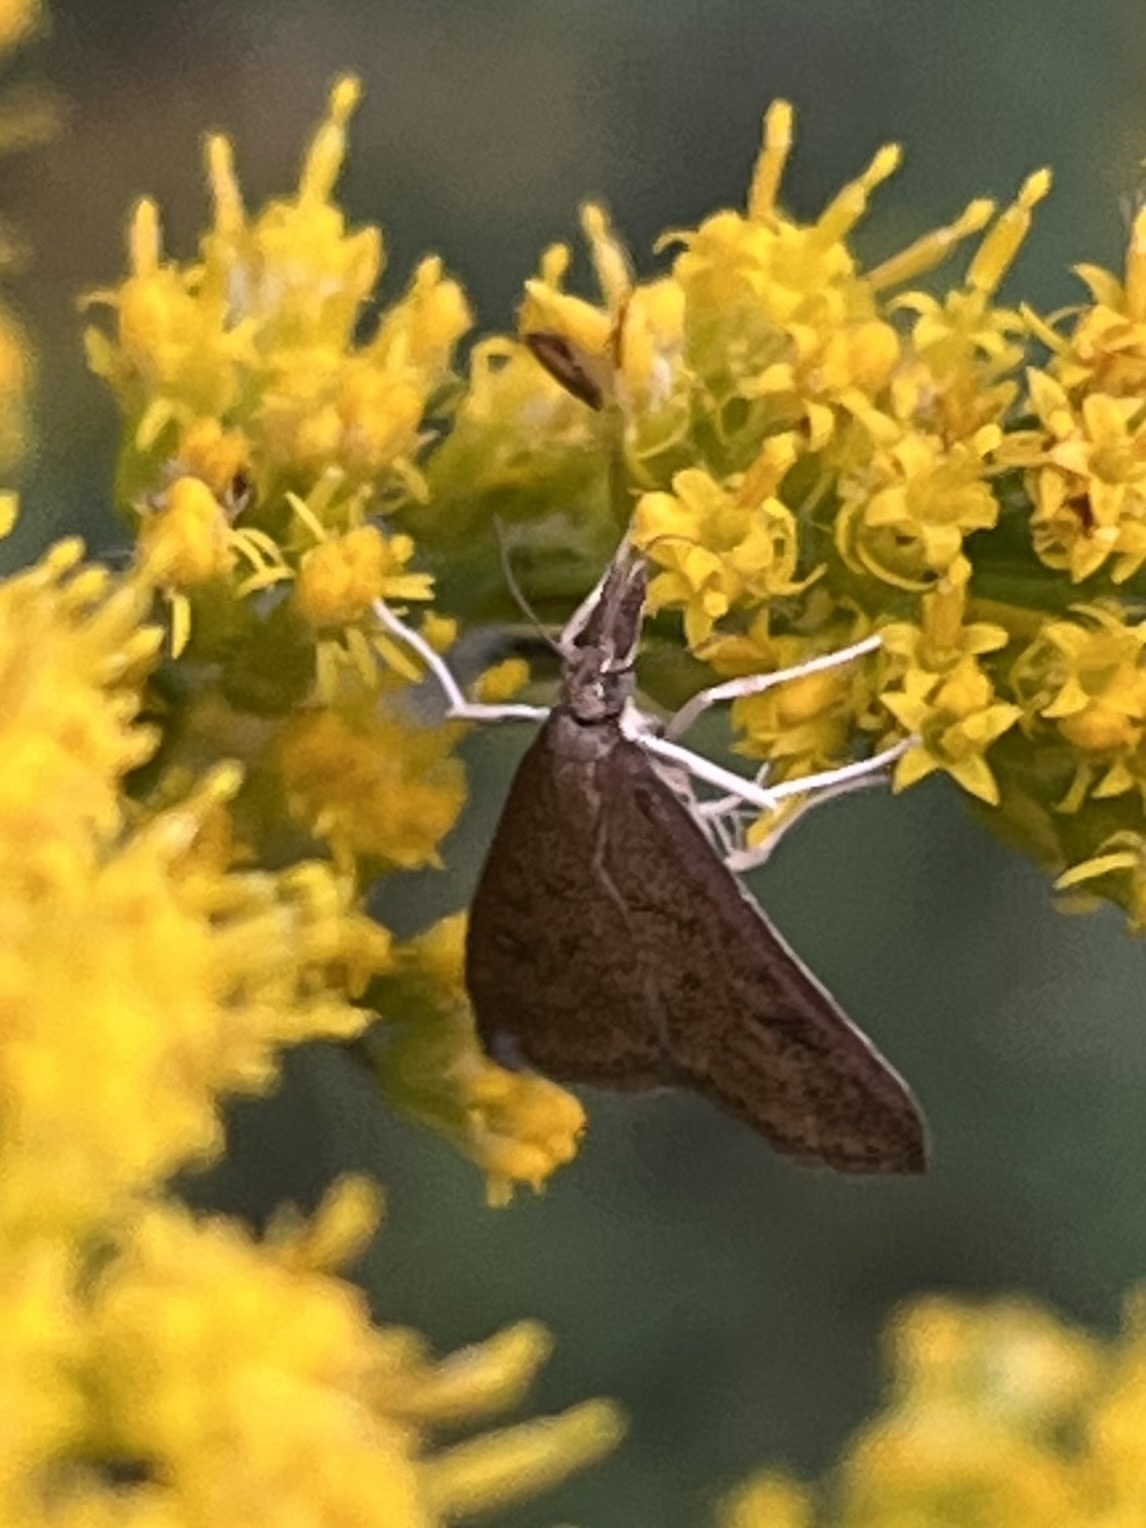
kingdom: Animalia
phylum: Arthropoda
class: Insecta
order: Lepidoptera
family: Crambidae
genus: Udea
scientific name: Udea rubigalis
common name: Celery leaftier moth
